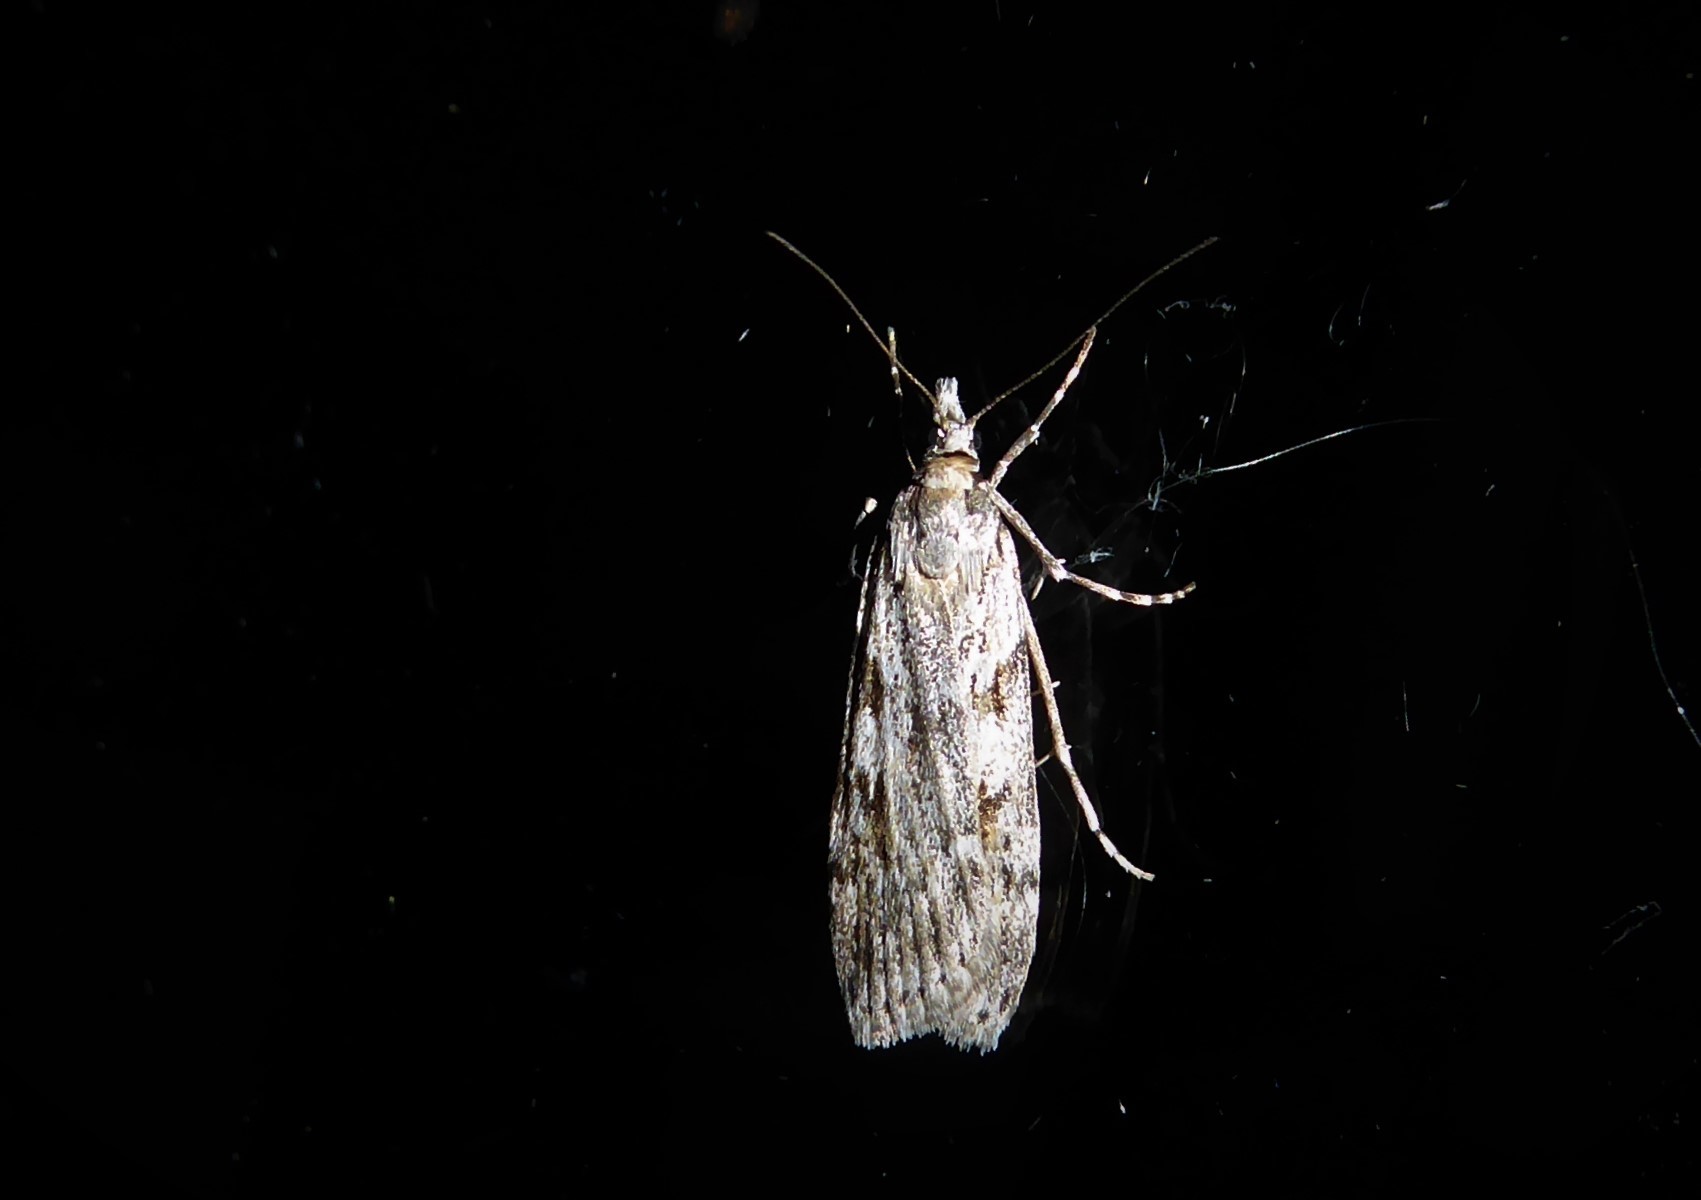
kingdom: Animalia
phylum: Arthropoda
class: Insecta
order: Lepidoptera
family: Crambidae
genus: Scoparia
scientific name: Scoparia halopis
